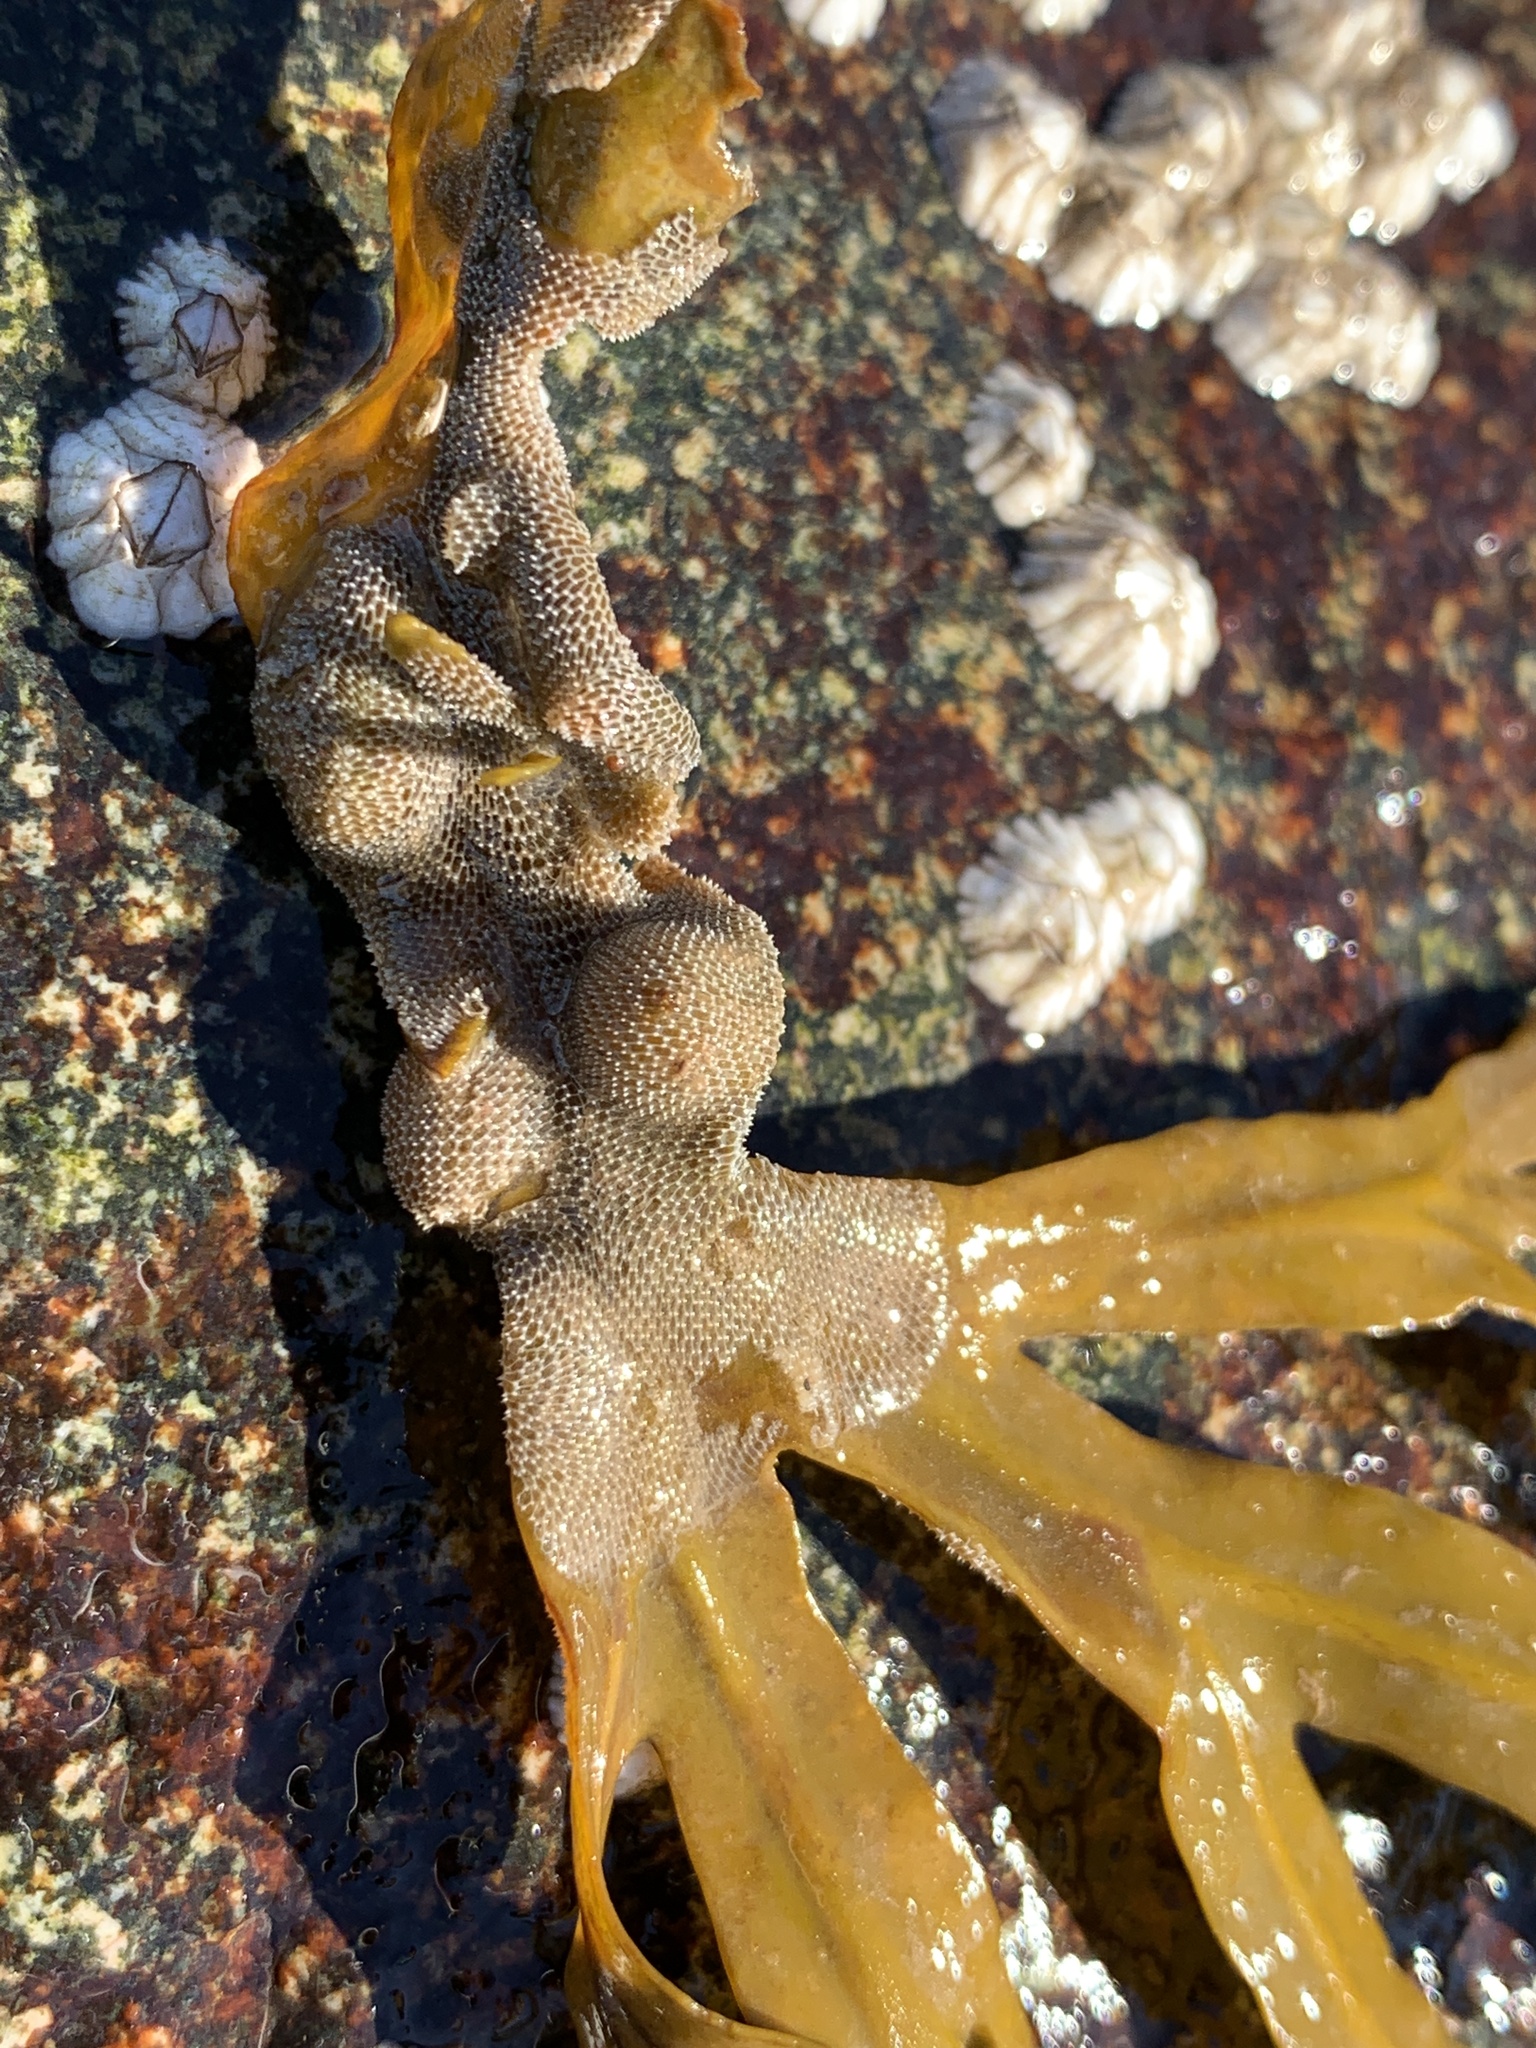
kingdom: Animalia
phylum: Bryozoa
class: Gymnolaemata
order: Cheilostomatida
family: Membraniporidae
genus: Membranipora
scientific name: Membranipora membranacea
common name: Sea mat
